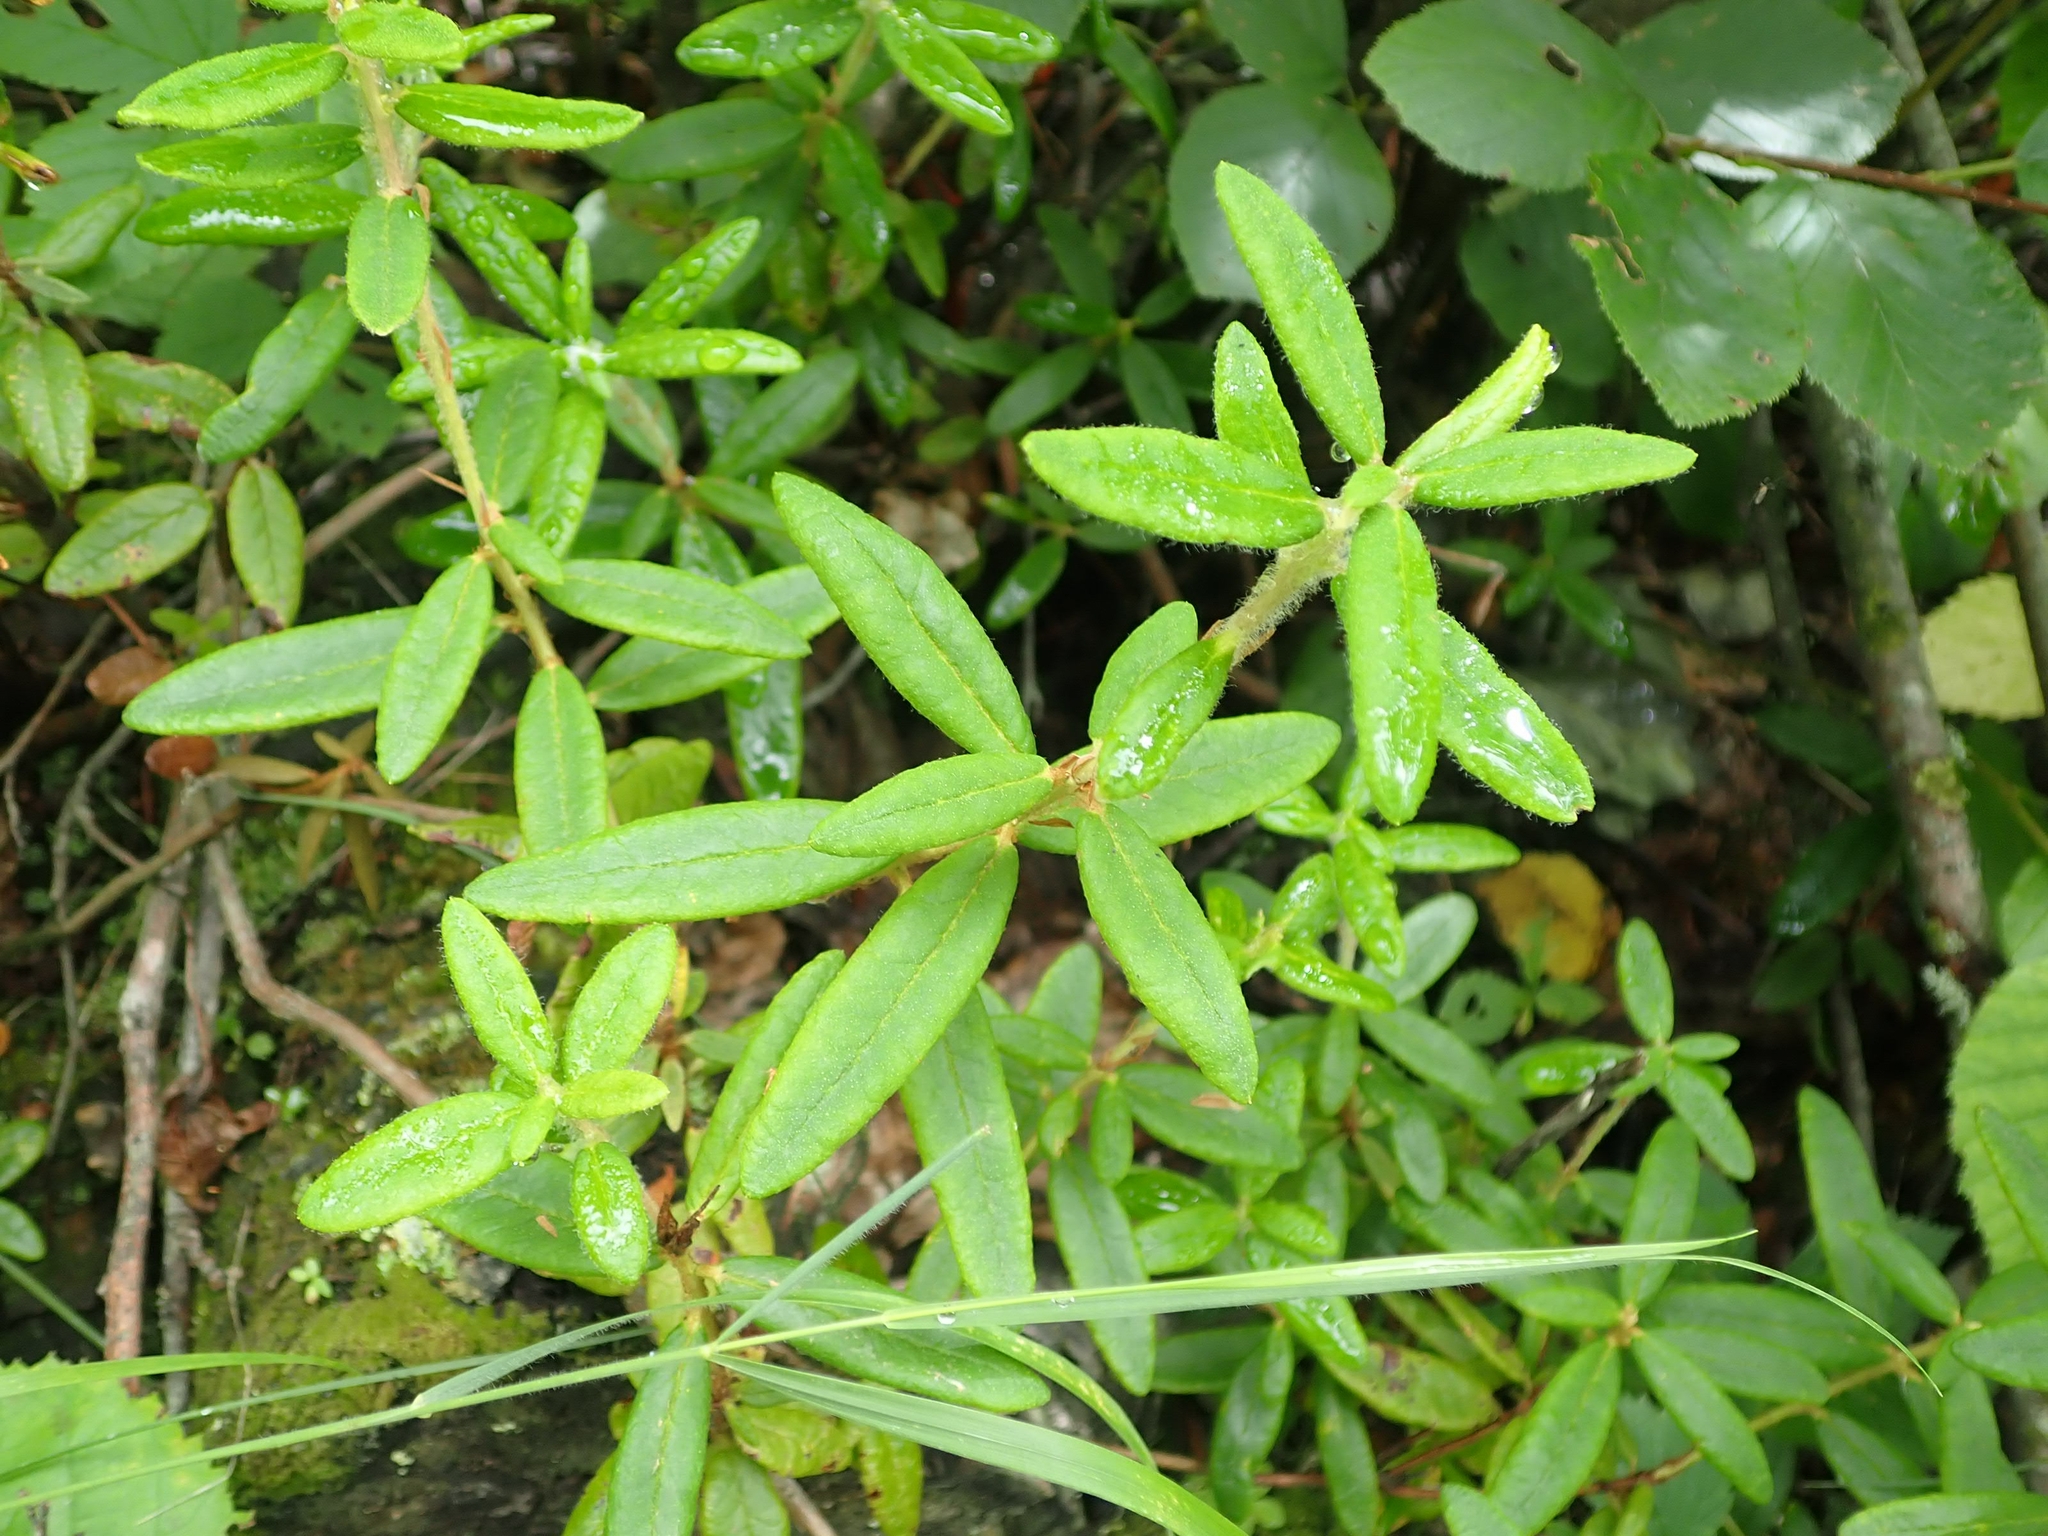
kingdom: Plantae
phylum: Tracheophyta
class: Magnoliopsida
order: Ericales
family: Ericaceae
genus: Rhododendron
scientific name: Rhododendron groenlandicum
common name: Bog labrador tea
